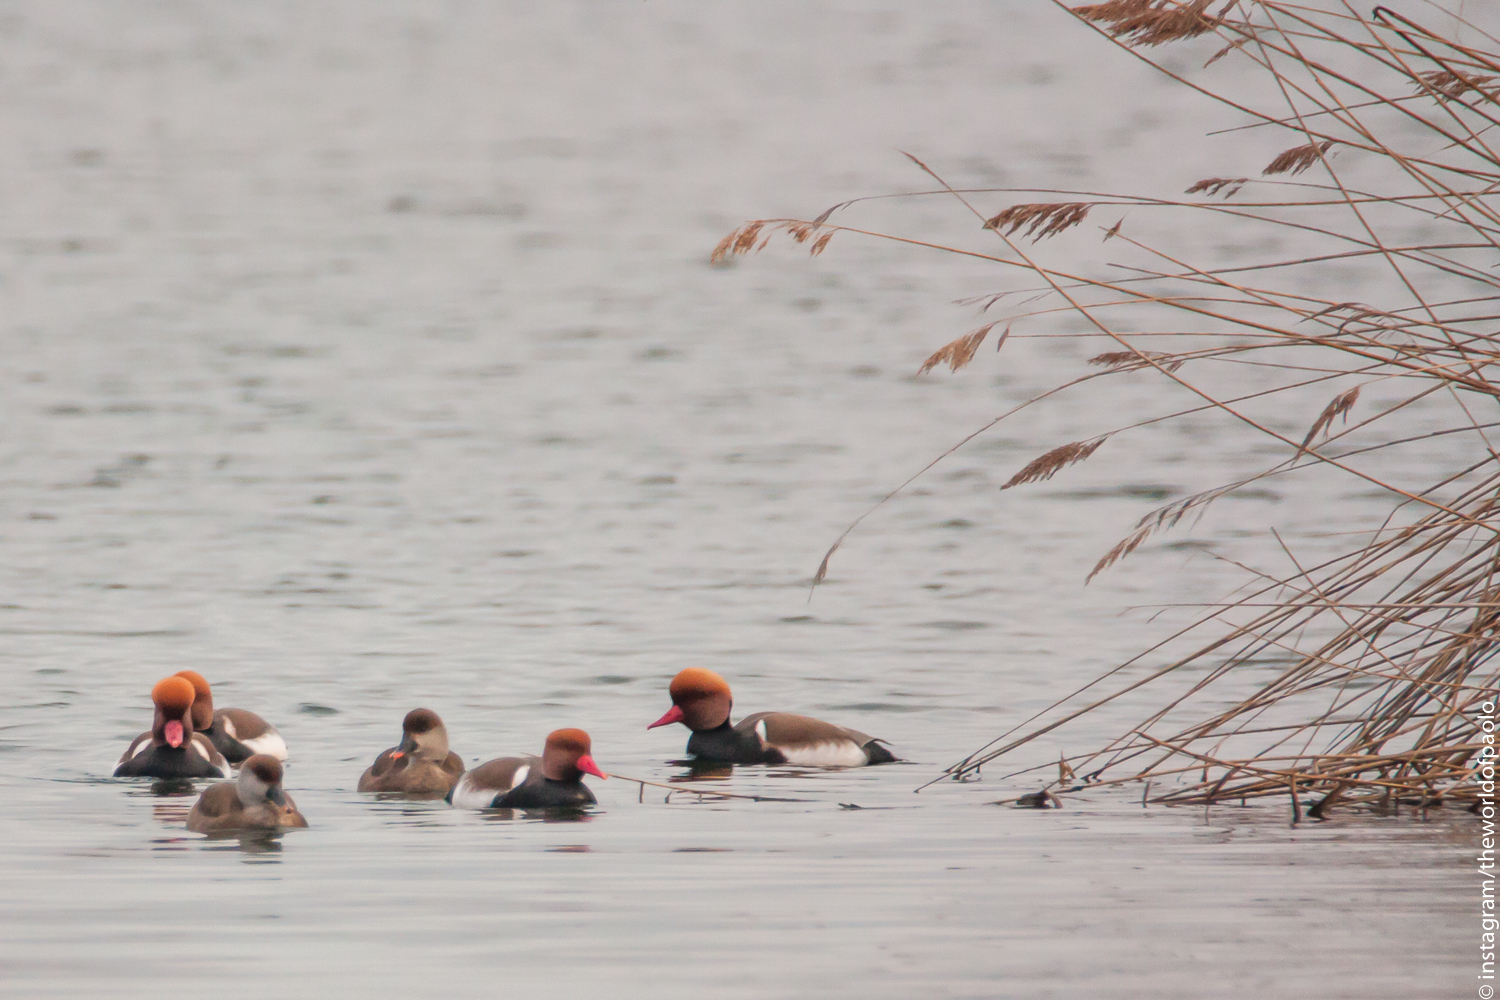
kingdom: Animalia
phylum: Chordata
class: Aves
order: Anseriformes
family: Anatidae
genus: Netta
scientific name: Netta rufina
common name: Red-crested pochard
